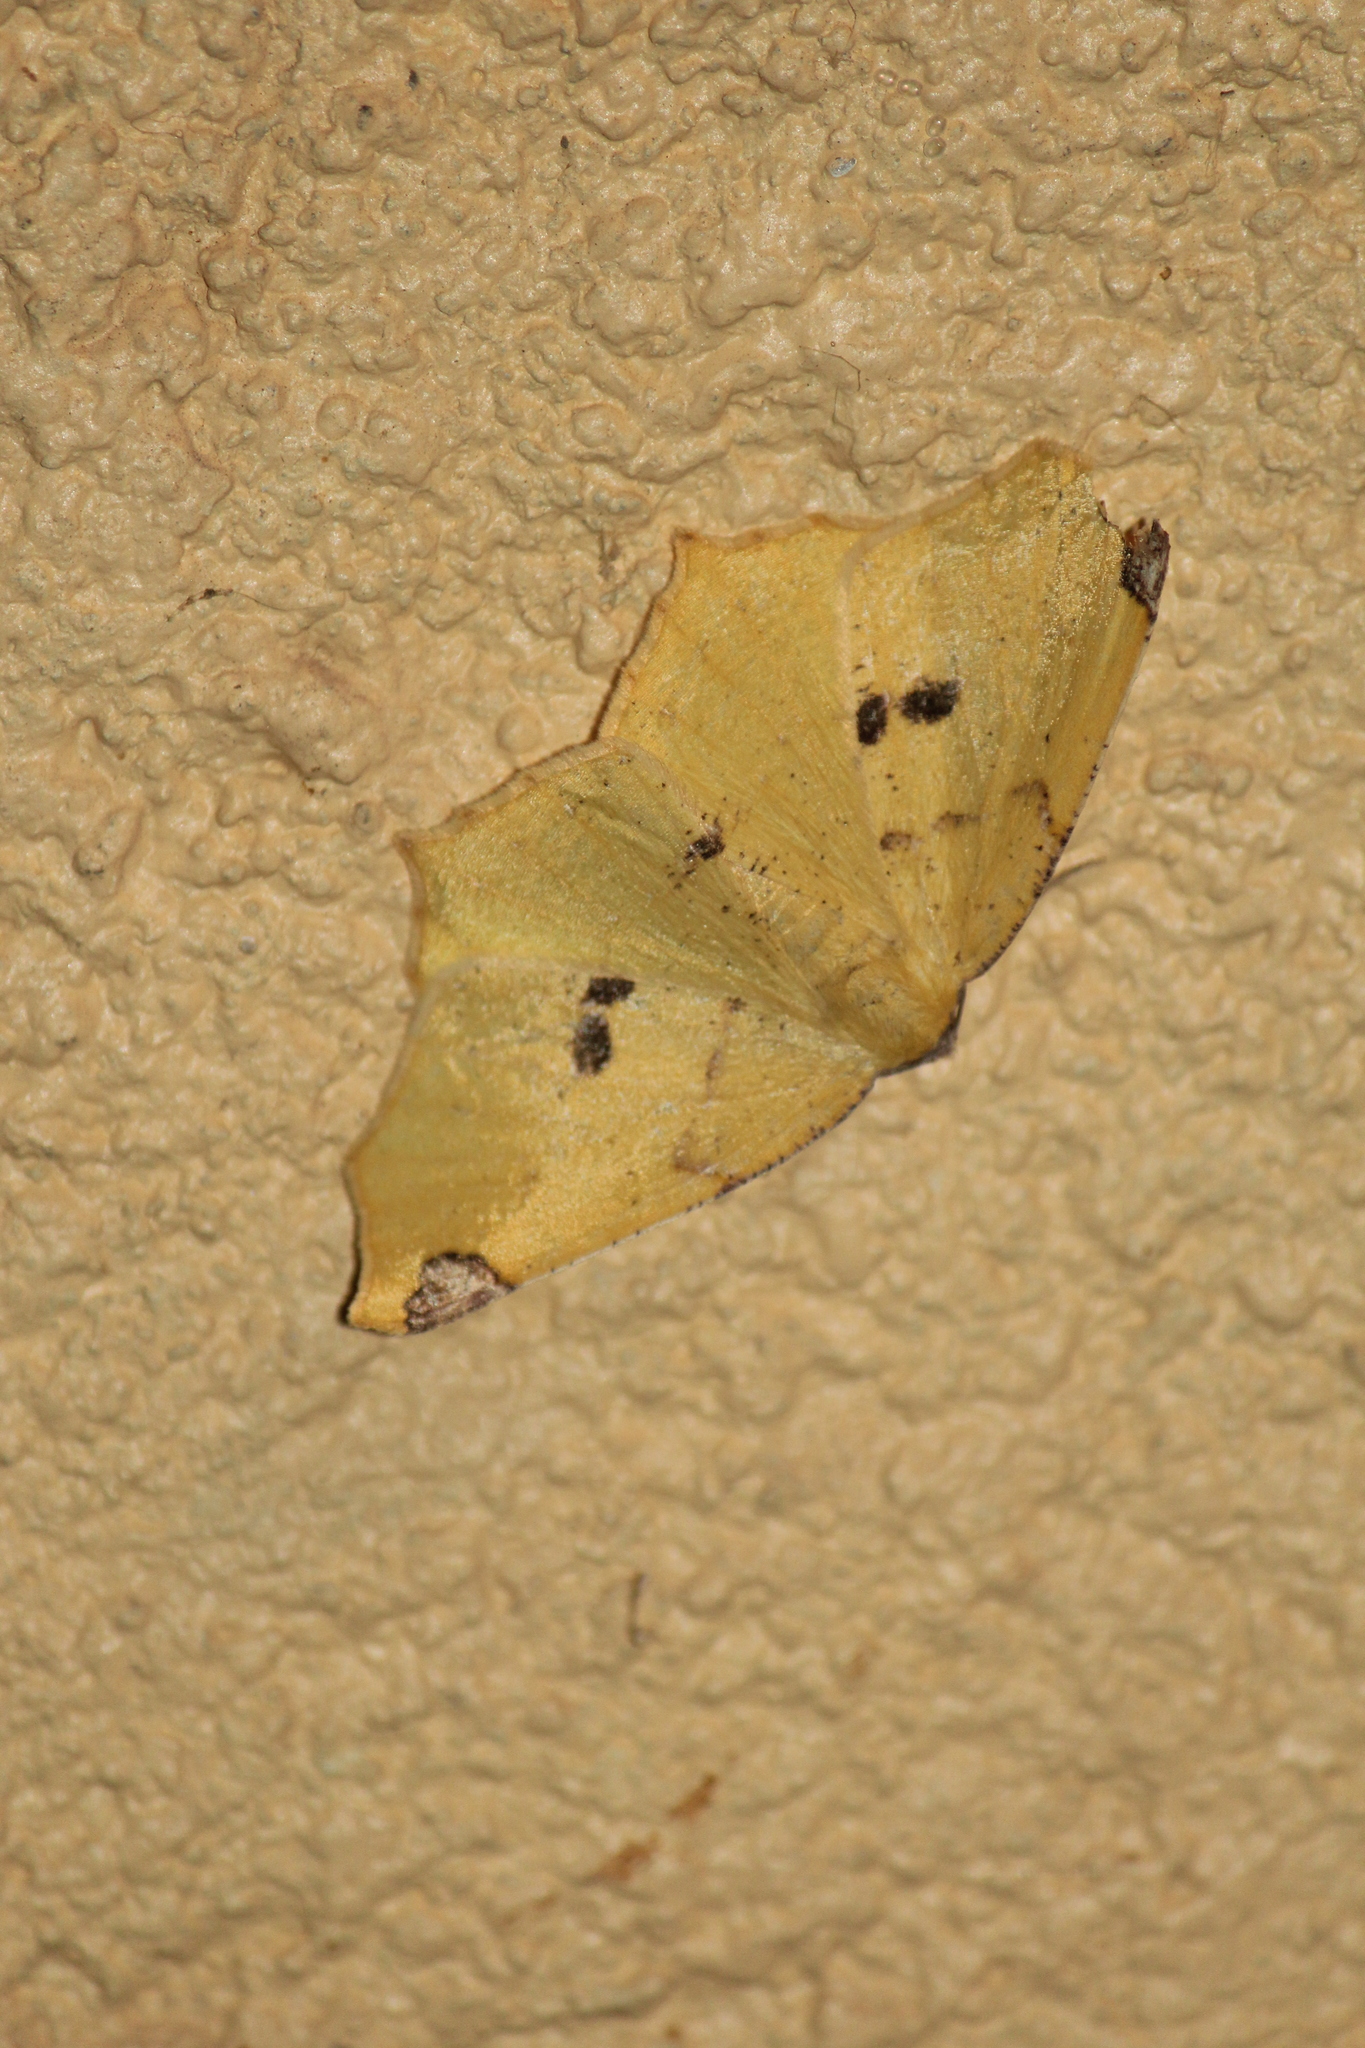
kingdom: Animalia
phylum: Arthropoda
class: Insecta
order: Lepidoptera
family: Geometridae
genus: Antepione
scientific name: Antepione thisoaria
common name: Variable antipione
